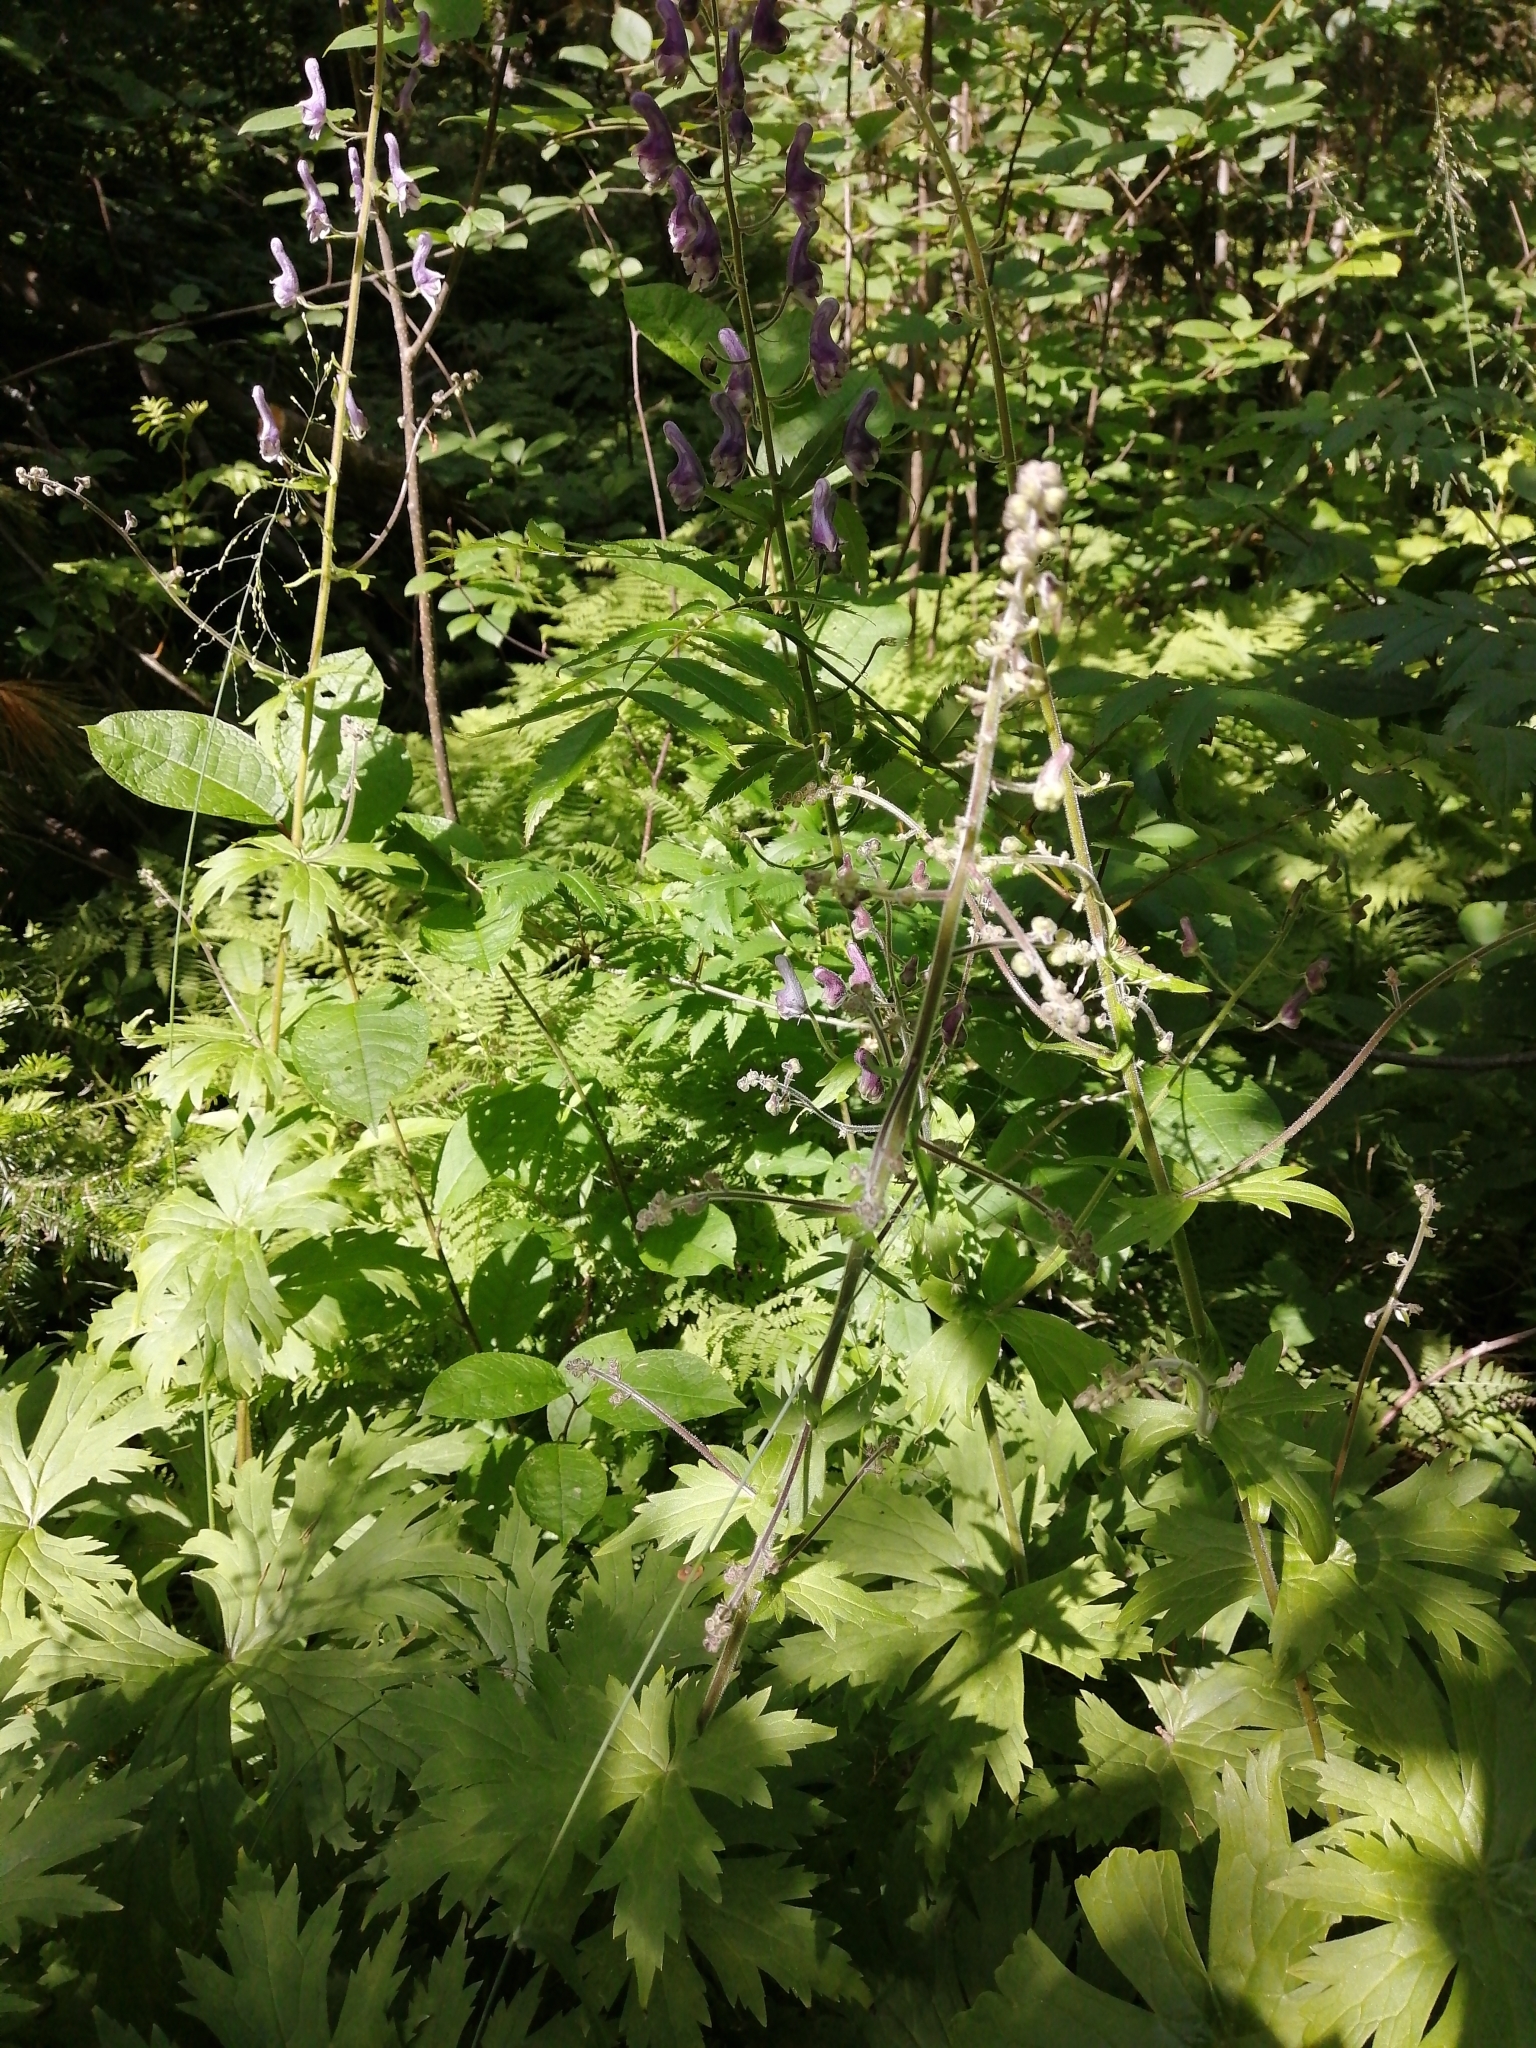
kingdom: Plantae
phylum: Tracheophyta
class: Magnoliopsida
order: Ranunculales
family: Ranunculaceae
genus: Aconitum
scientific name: Aconitum septentrionale
